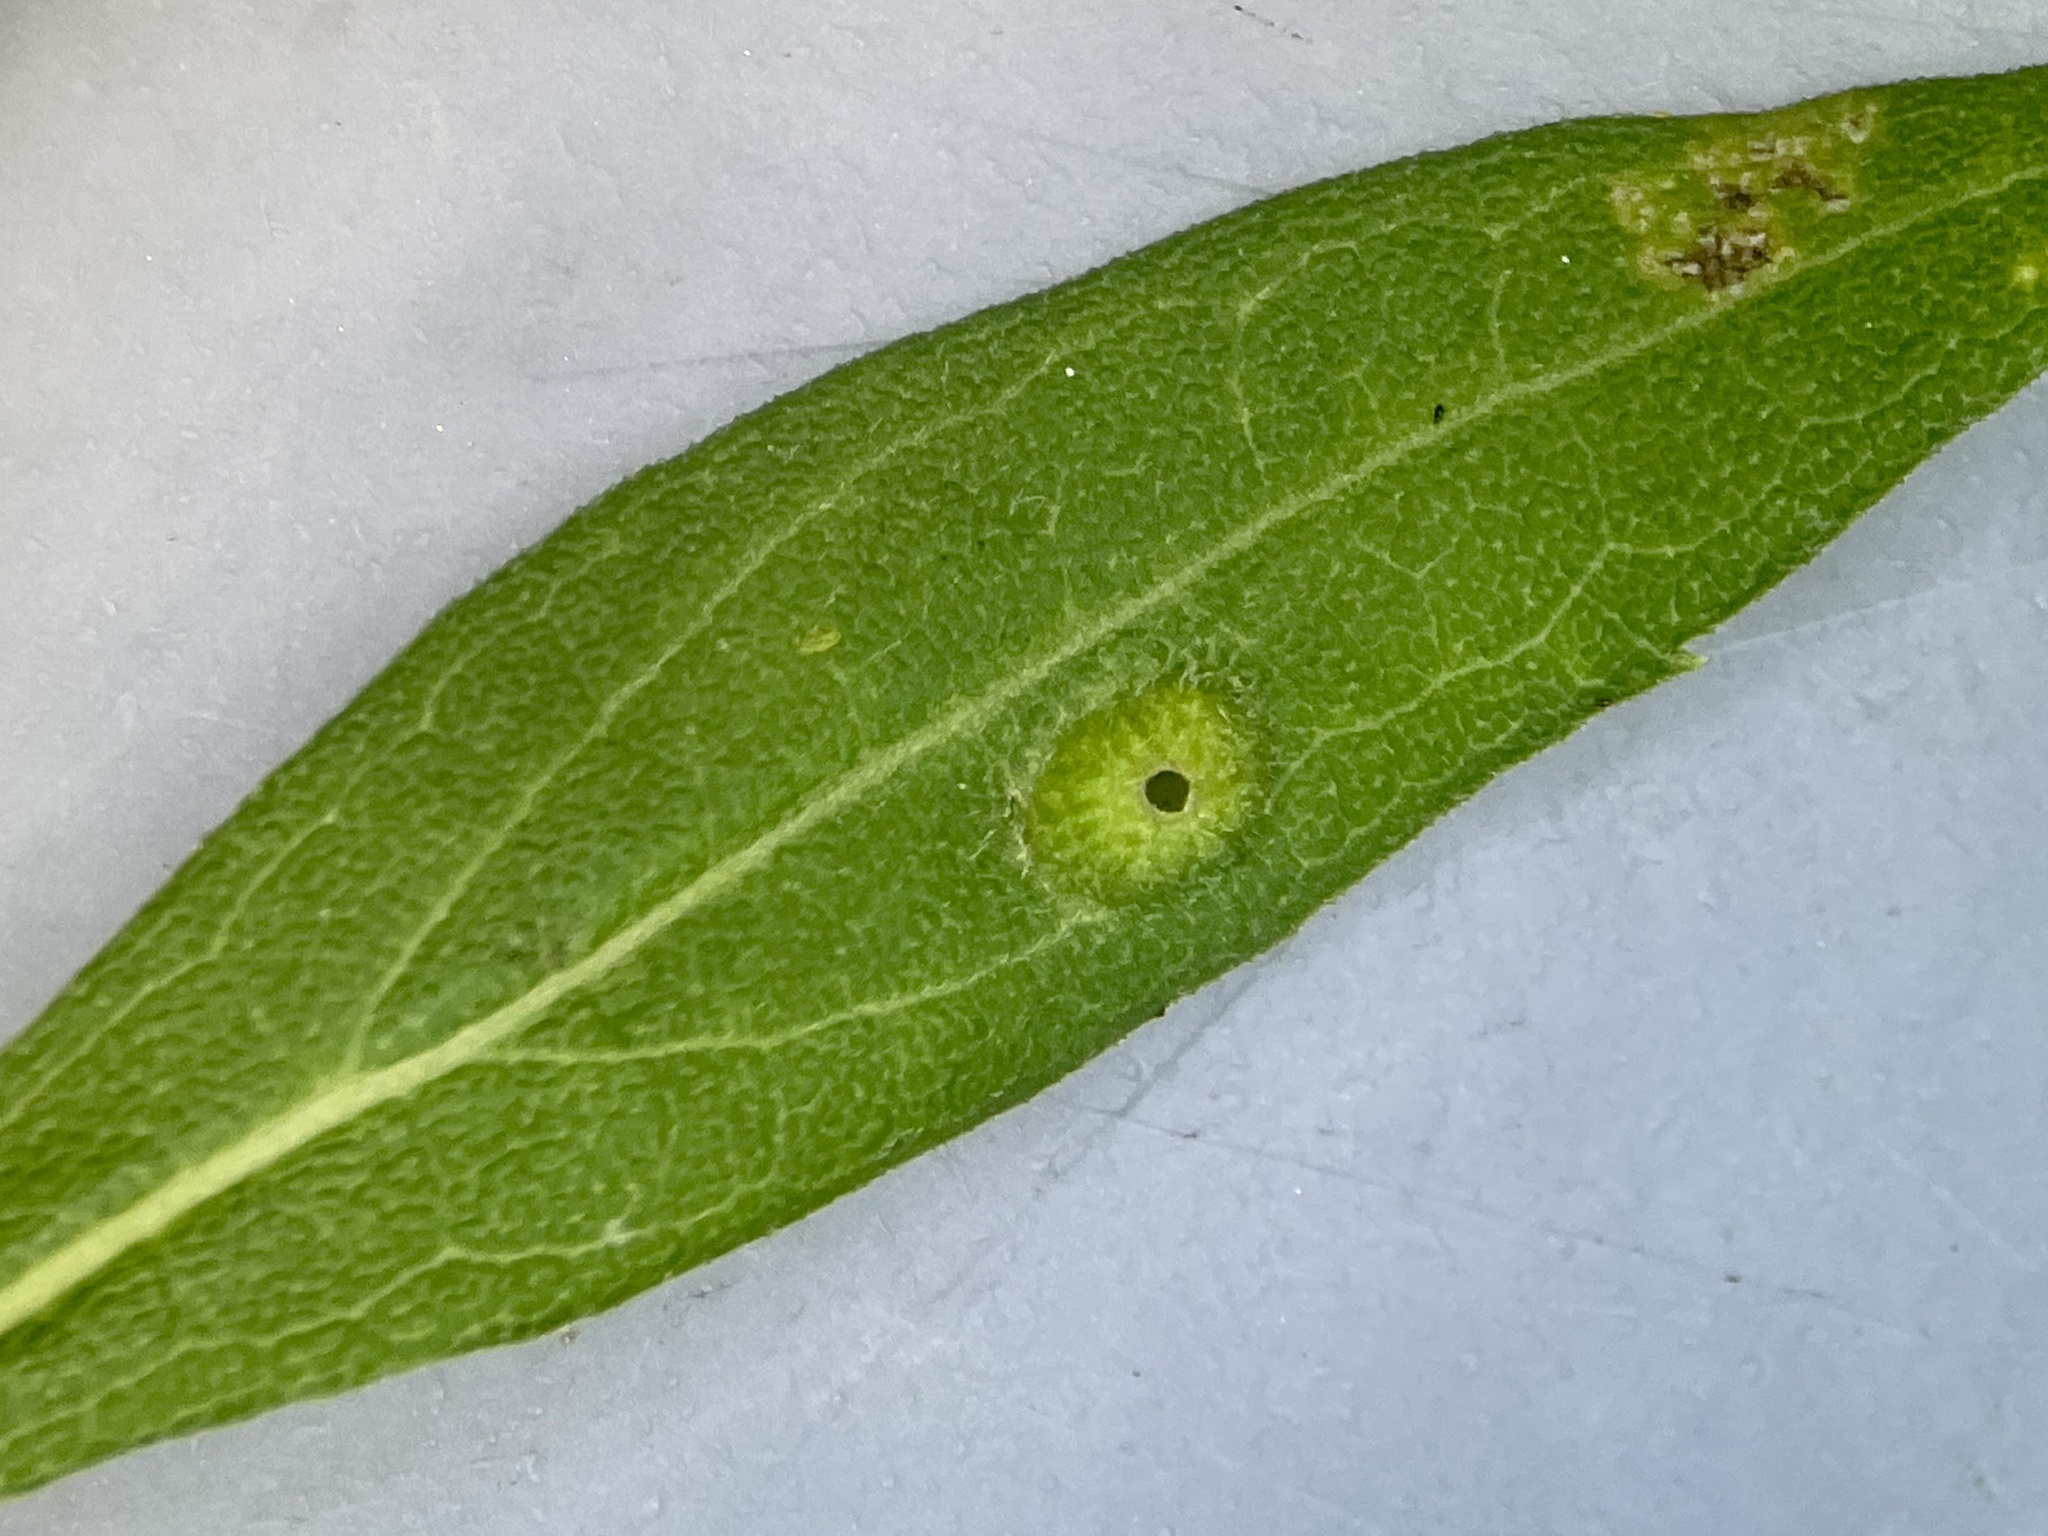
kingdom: Animalia
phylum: Arthropoda
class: Insecta
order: Diptera
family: Cecidomyiidae
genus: Asphondylia
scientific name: Asphondylia solidaginis
